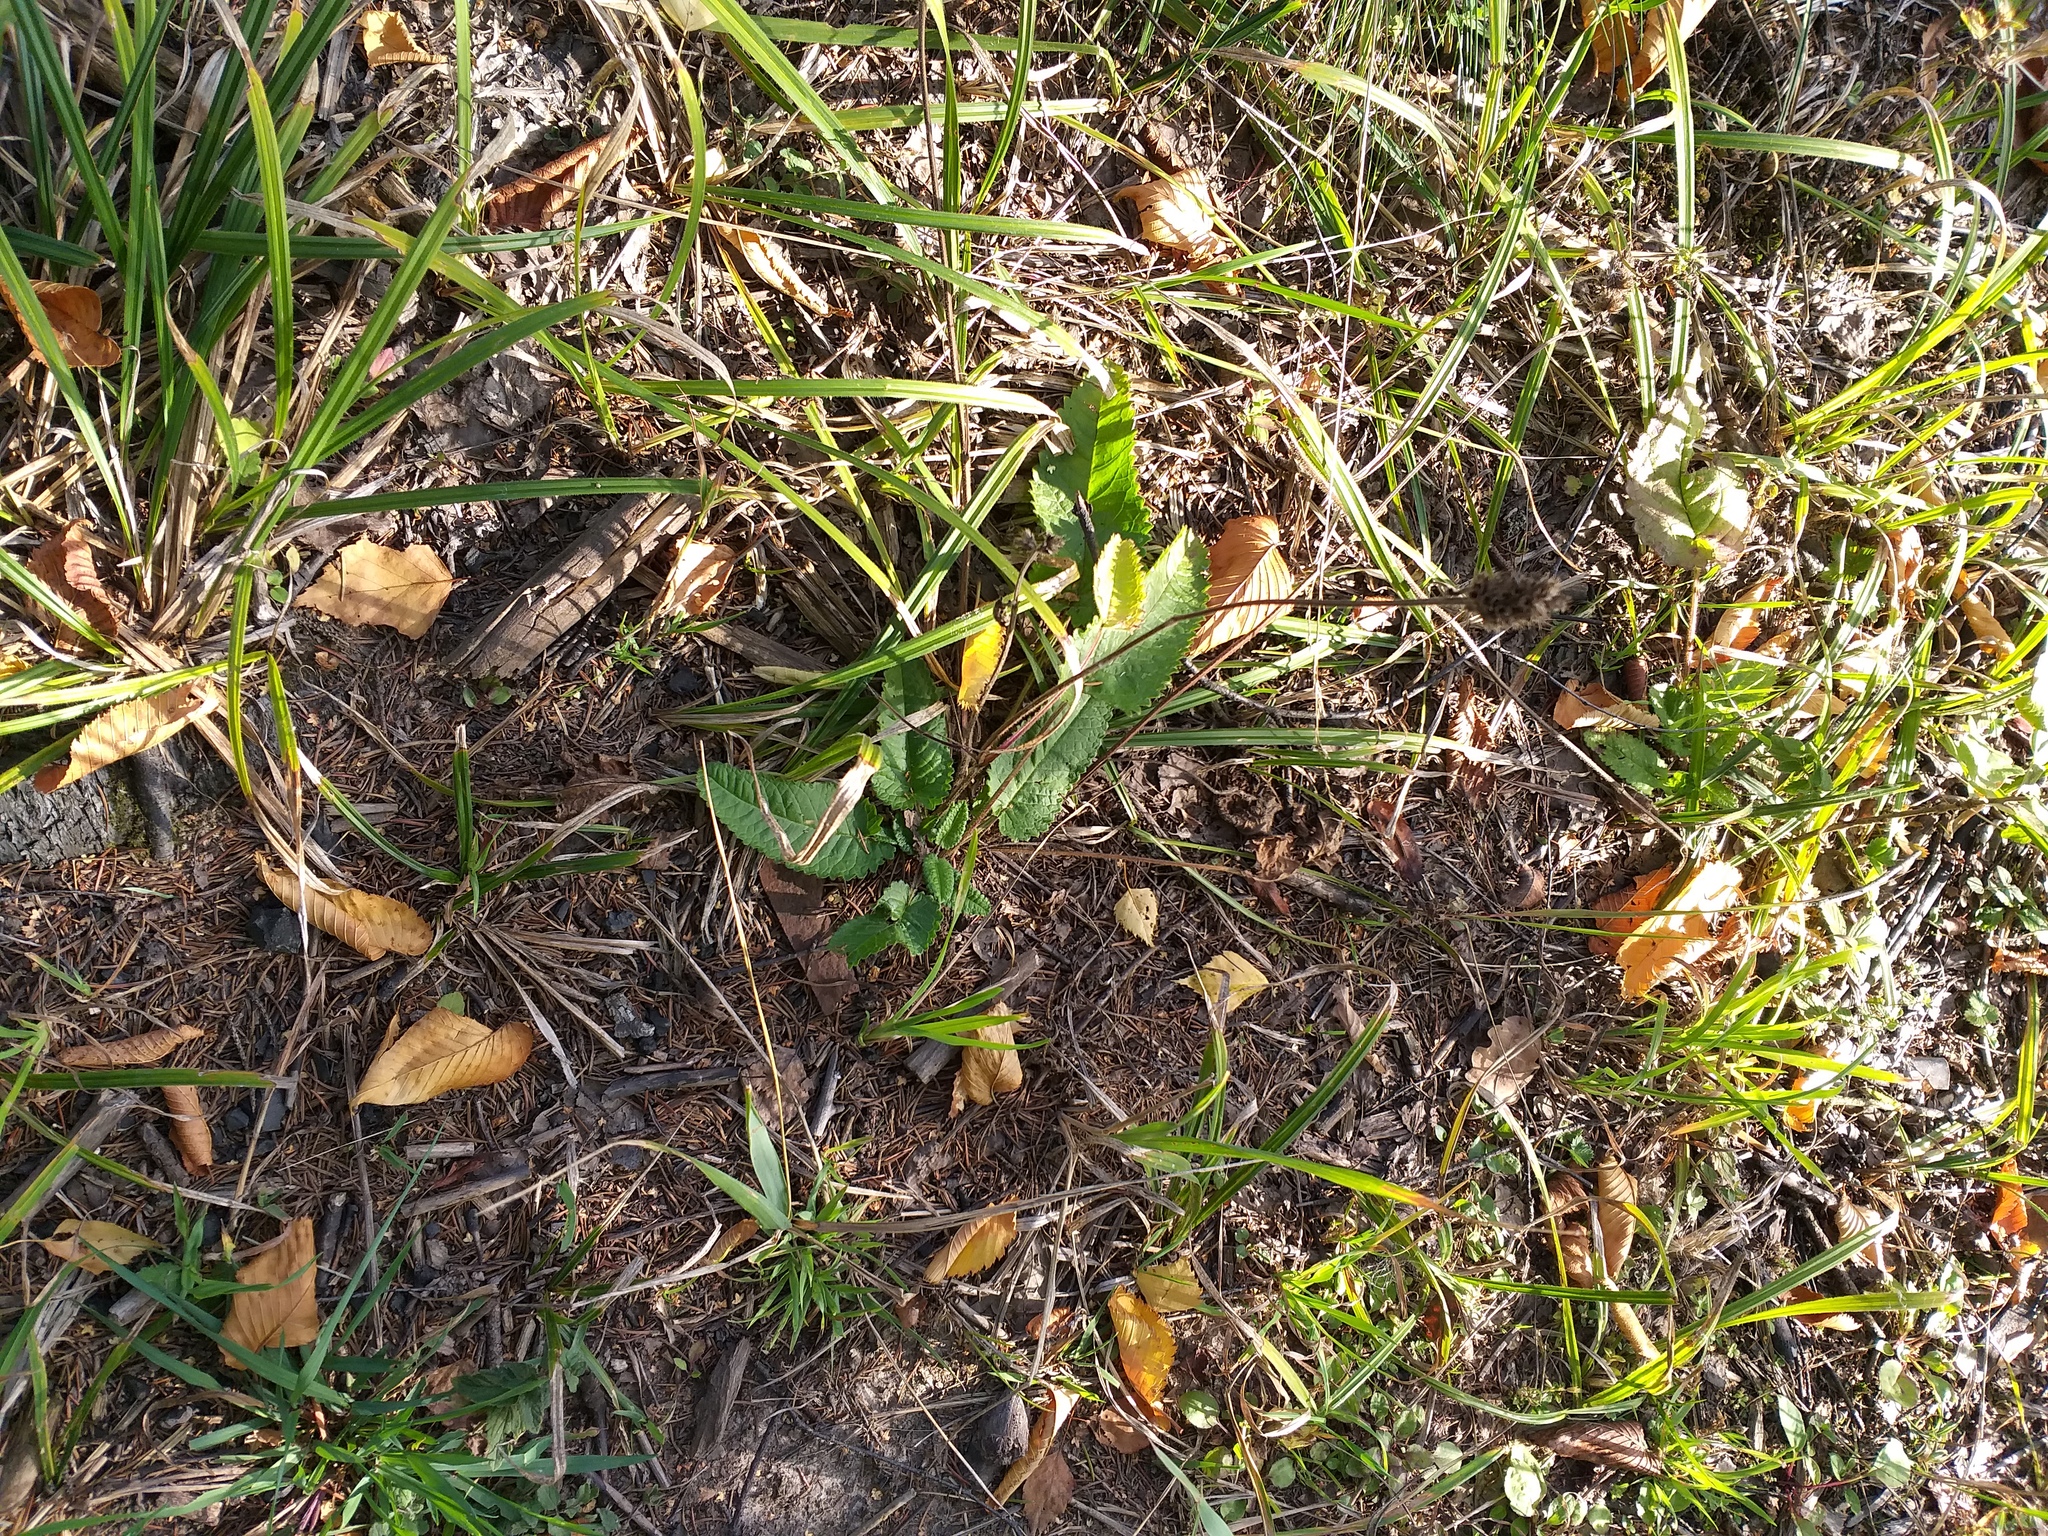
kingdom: Plantae
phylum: Tracheophyta
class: Magnoliopsida
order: Lamiales
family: Lamiaceae
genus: Betonica
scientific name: Betonica officinalis
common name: Bishop's-wort
